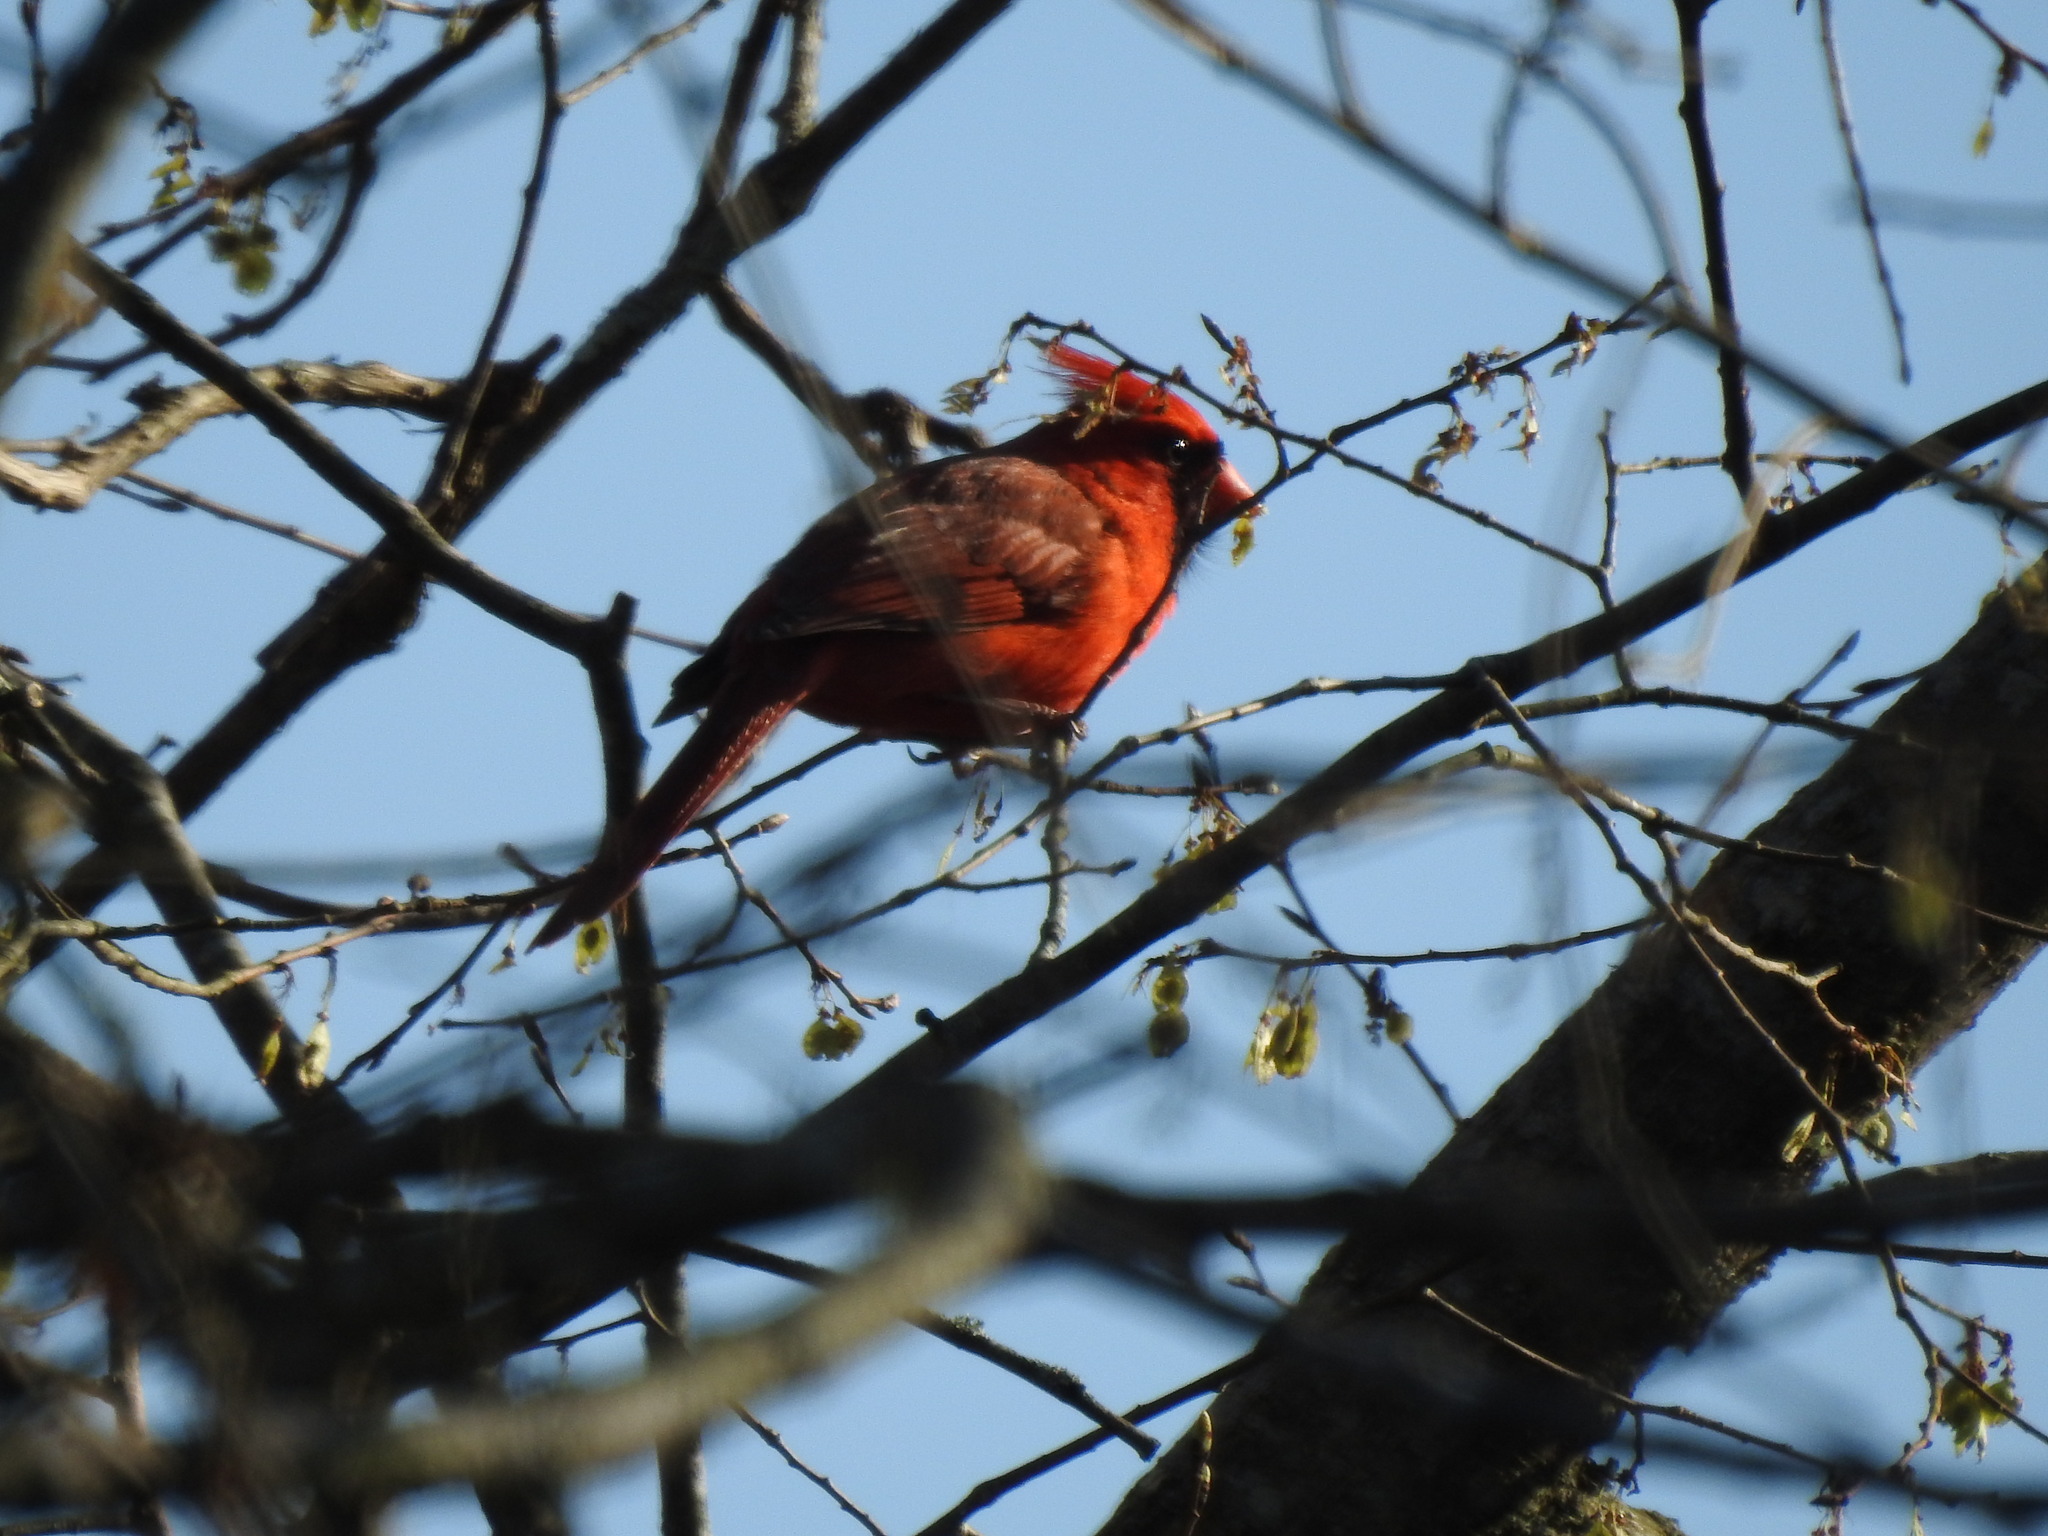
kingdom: Animalia
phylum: Chordata
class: Aves
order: Passeriformes
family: Cardinalidae
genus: Cardinalis
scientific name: Cardinalis cardinalis
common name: Northern cardinal
